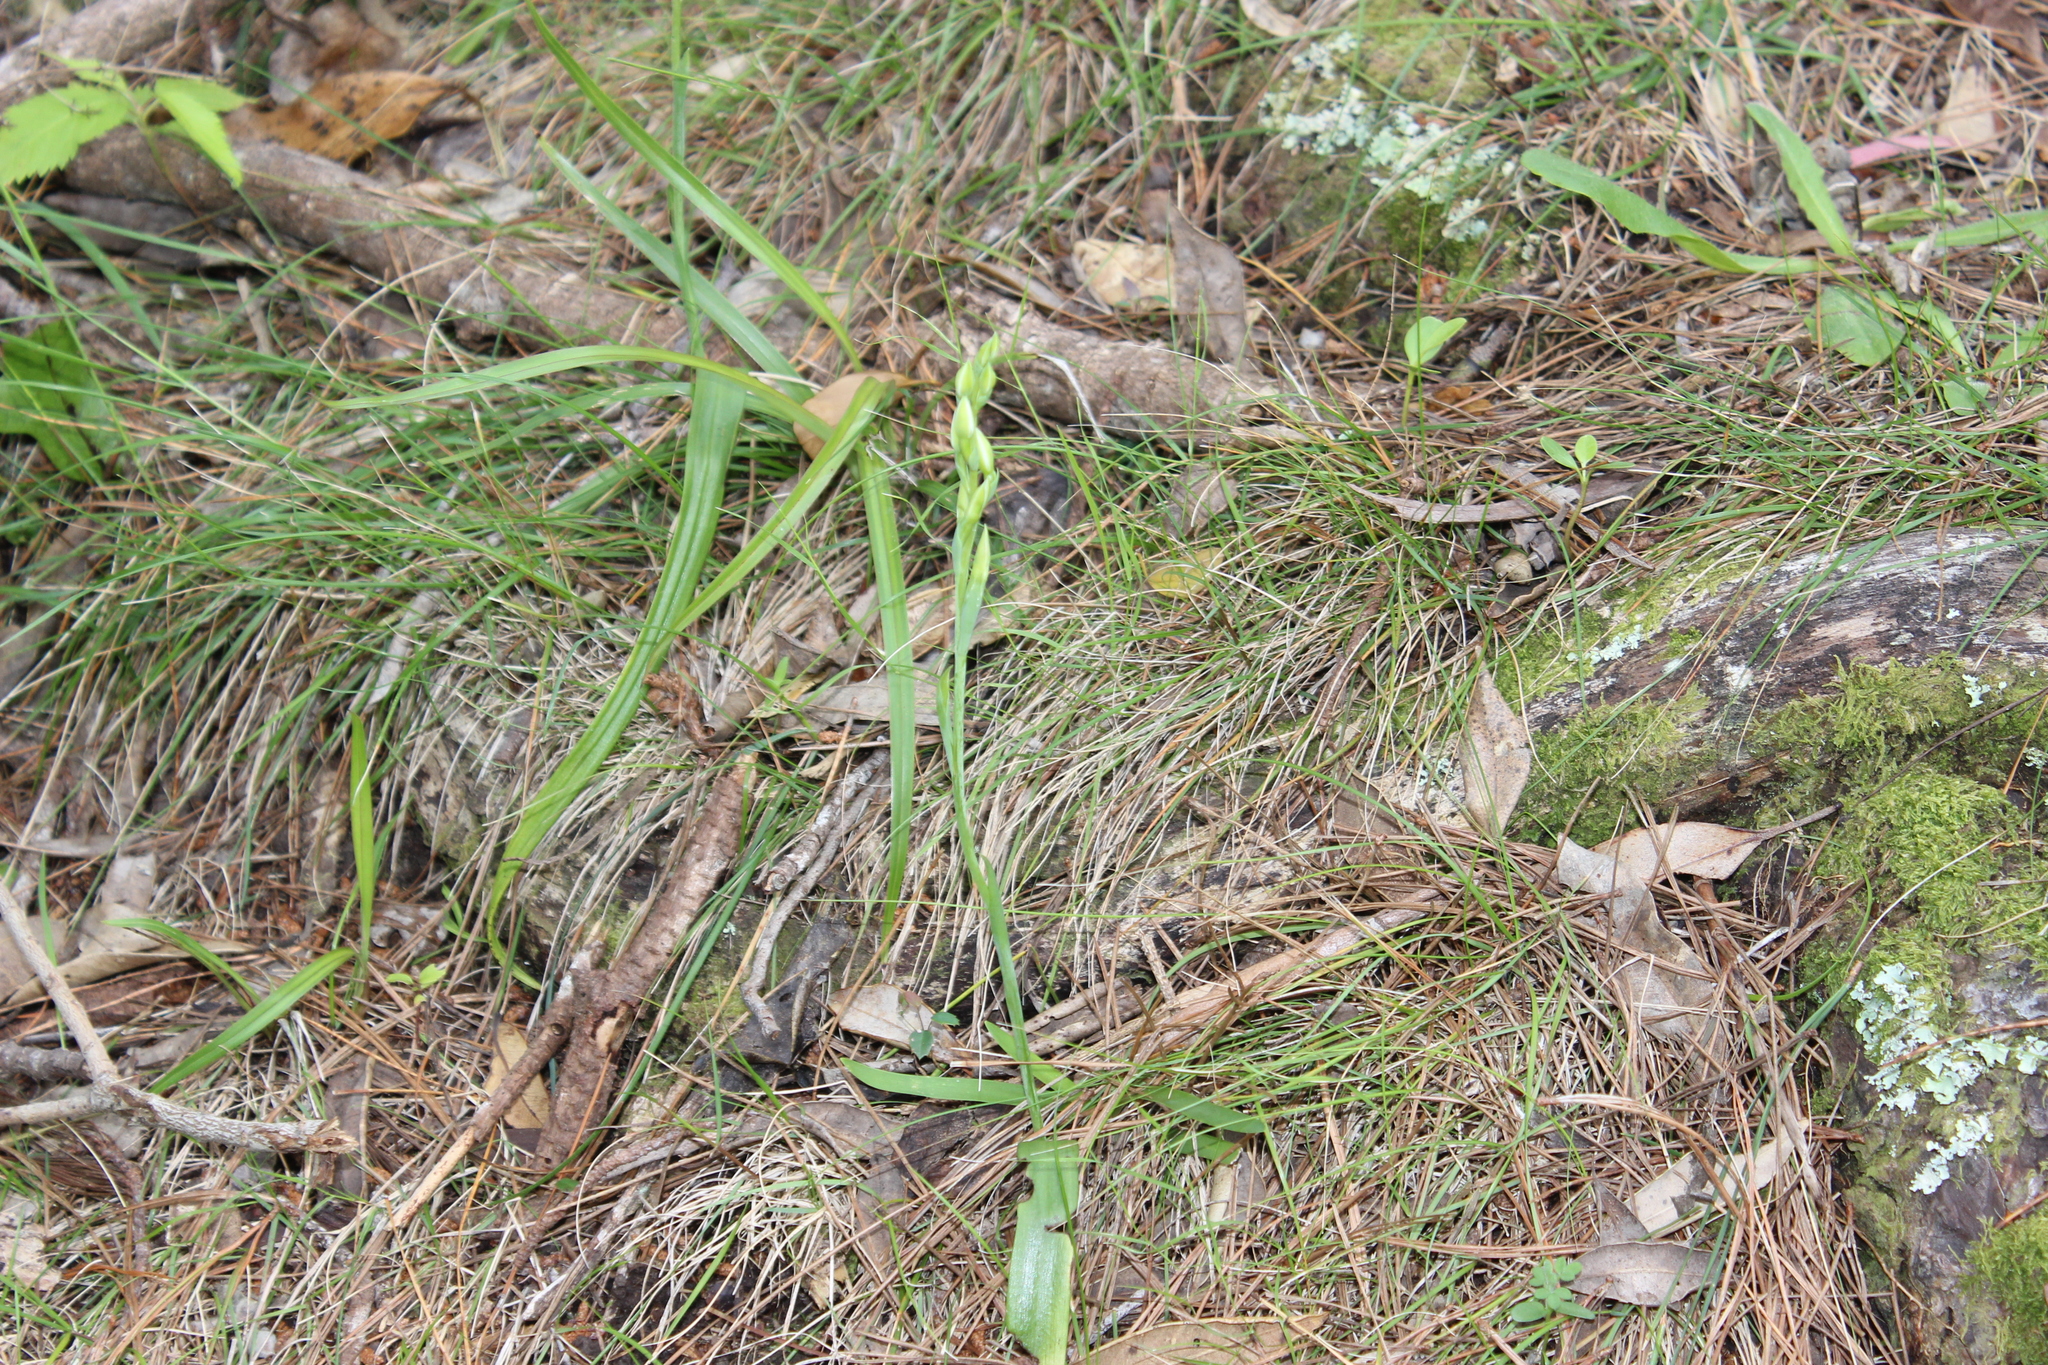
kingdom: Plantae
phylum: Tracheophyta
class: Liliopsida
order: Asparagales
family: Orchidaceae
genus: Thelymitra
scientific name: Thelymitra longifolia
